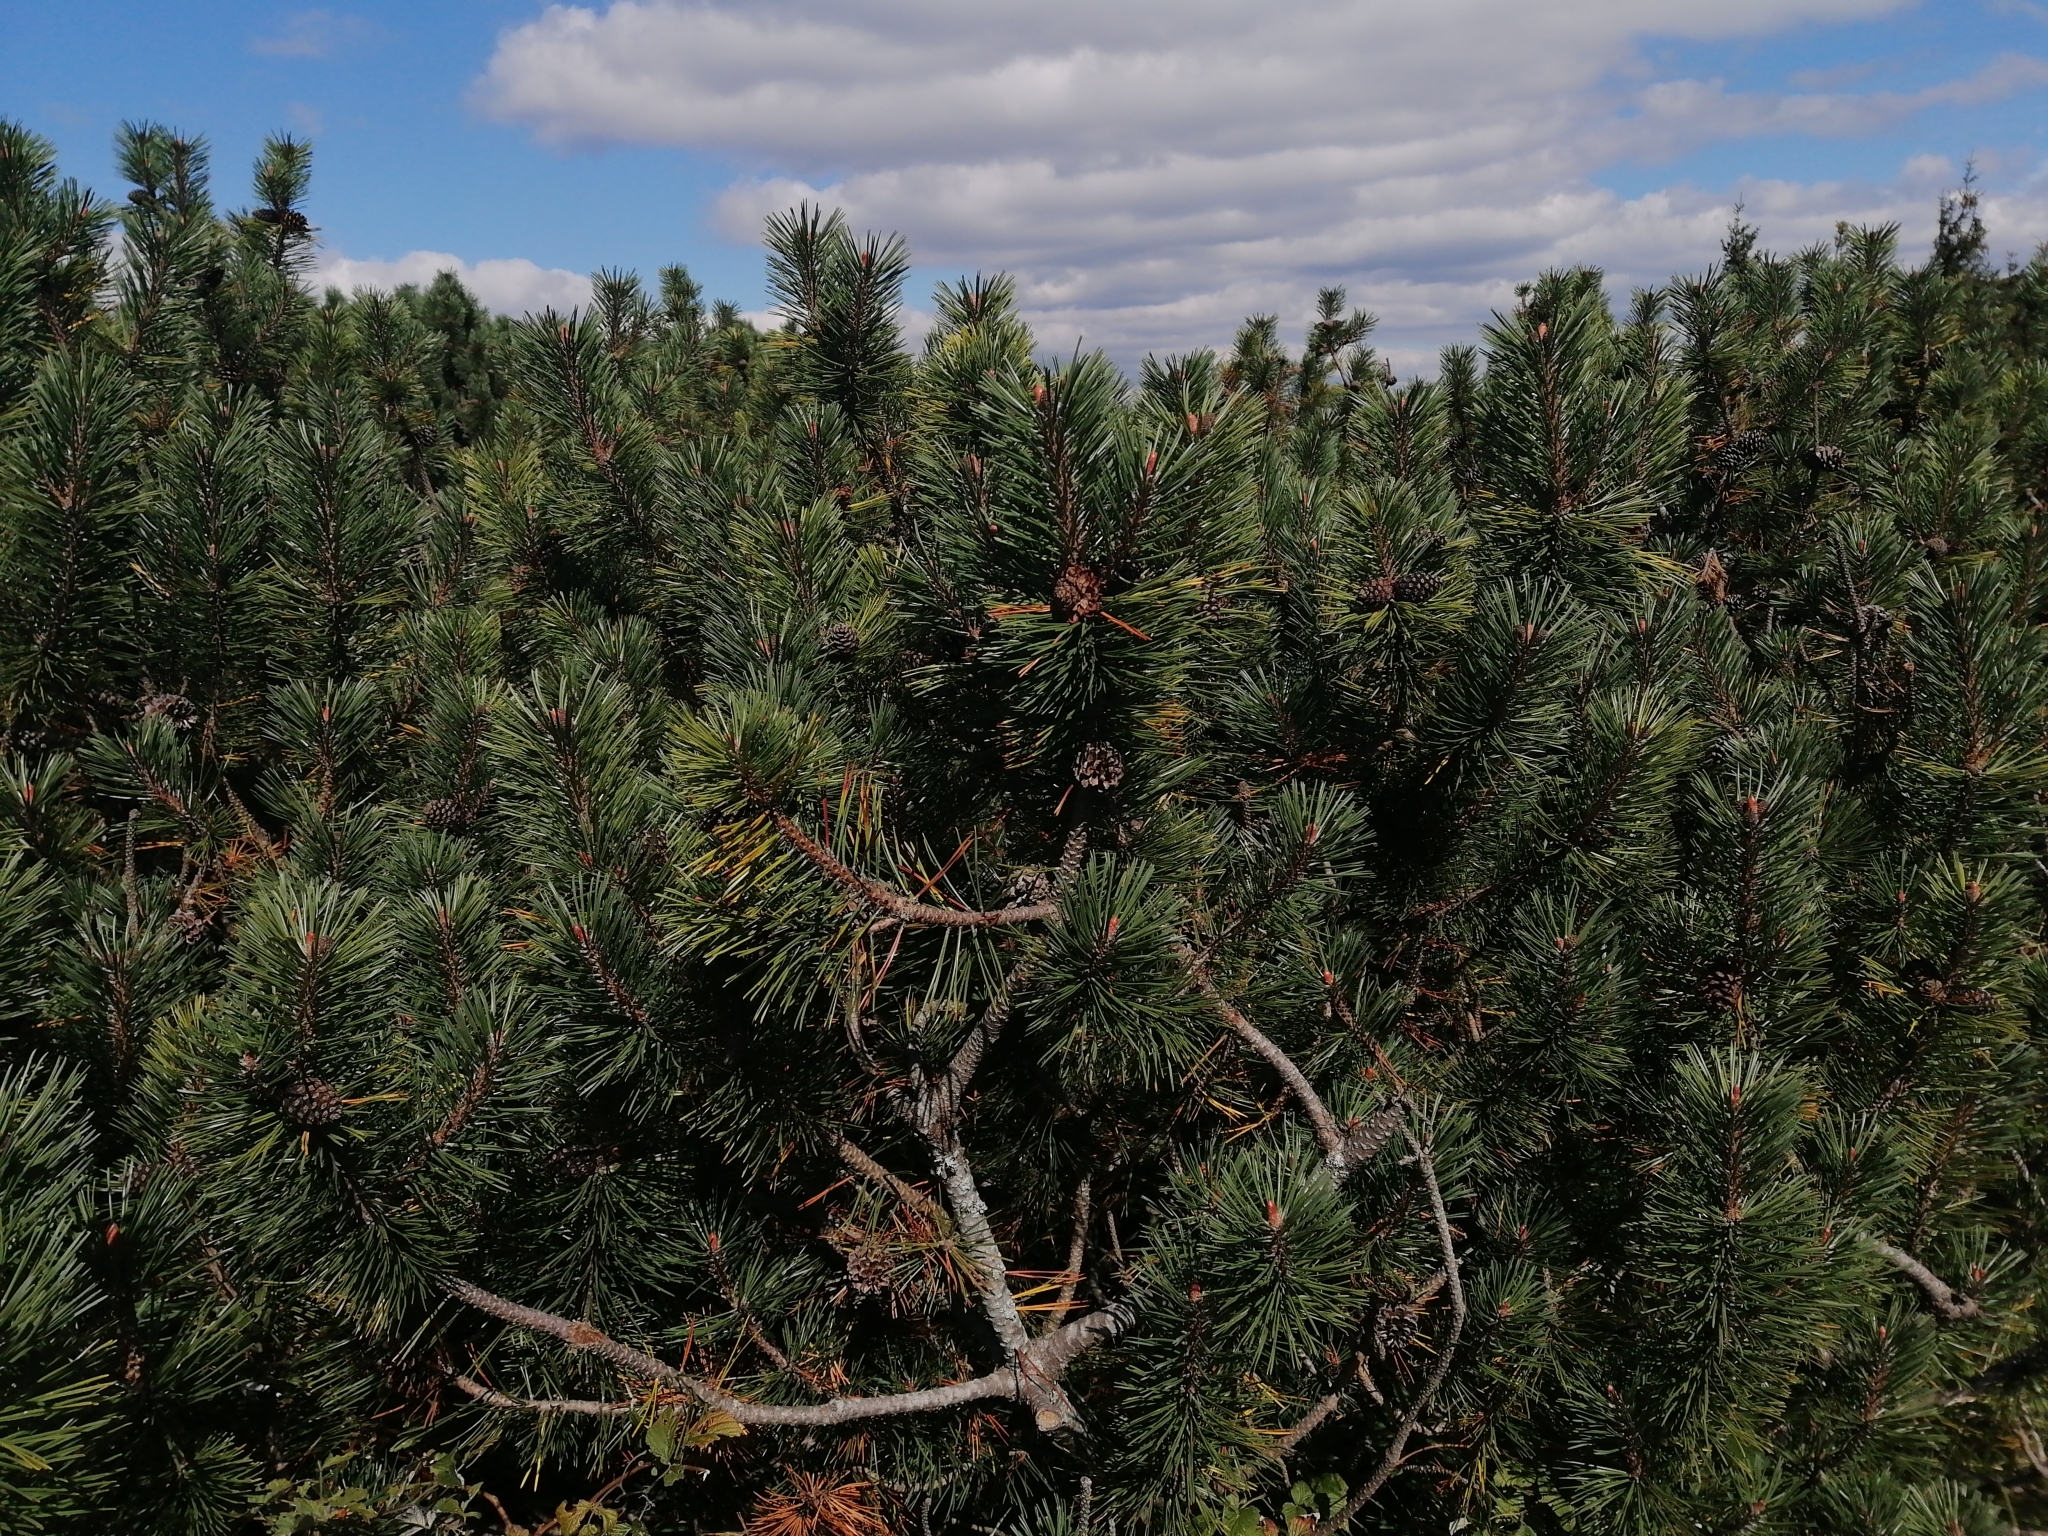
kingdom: Plantae
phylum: Tracheophyta
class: Pinopsida
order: Pinales
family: Pinaceae
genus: Pinus
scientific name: Pinus mugo
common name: Mugo pine
